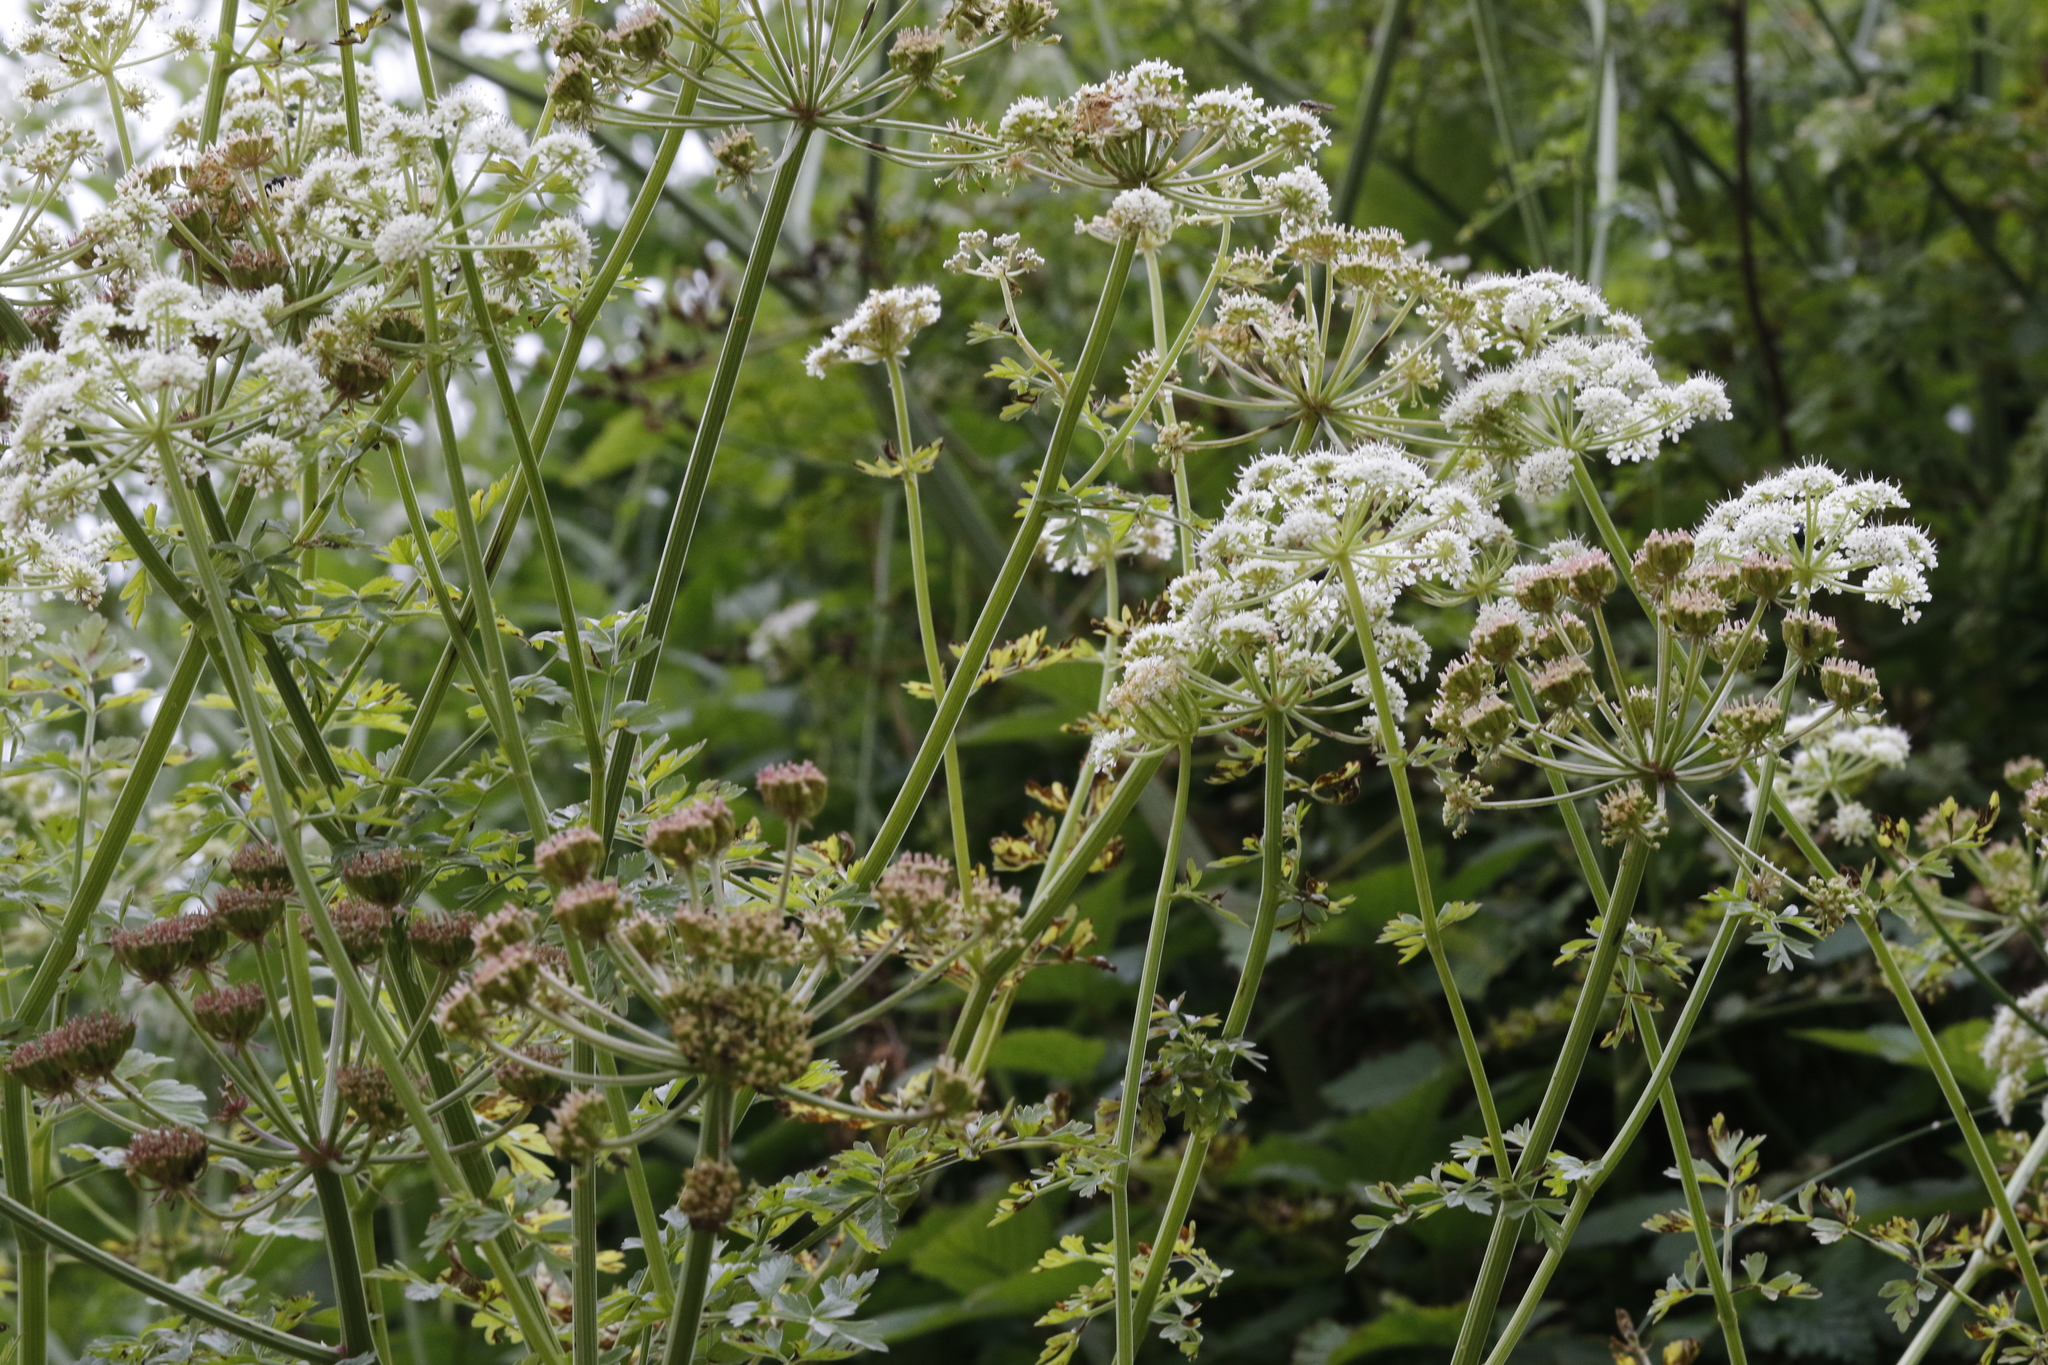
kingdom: Plantae
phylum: Tracheophyta
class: Magnoliopsida
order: Apiales
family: Apiaceae
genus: Oenanthe
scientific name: Oenanthe crocata
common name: Hemlock water-dropwort
